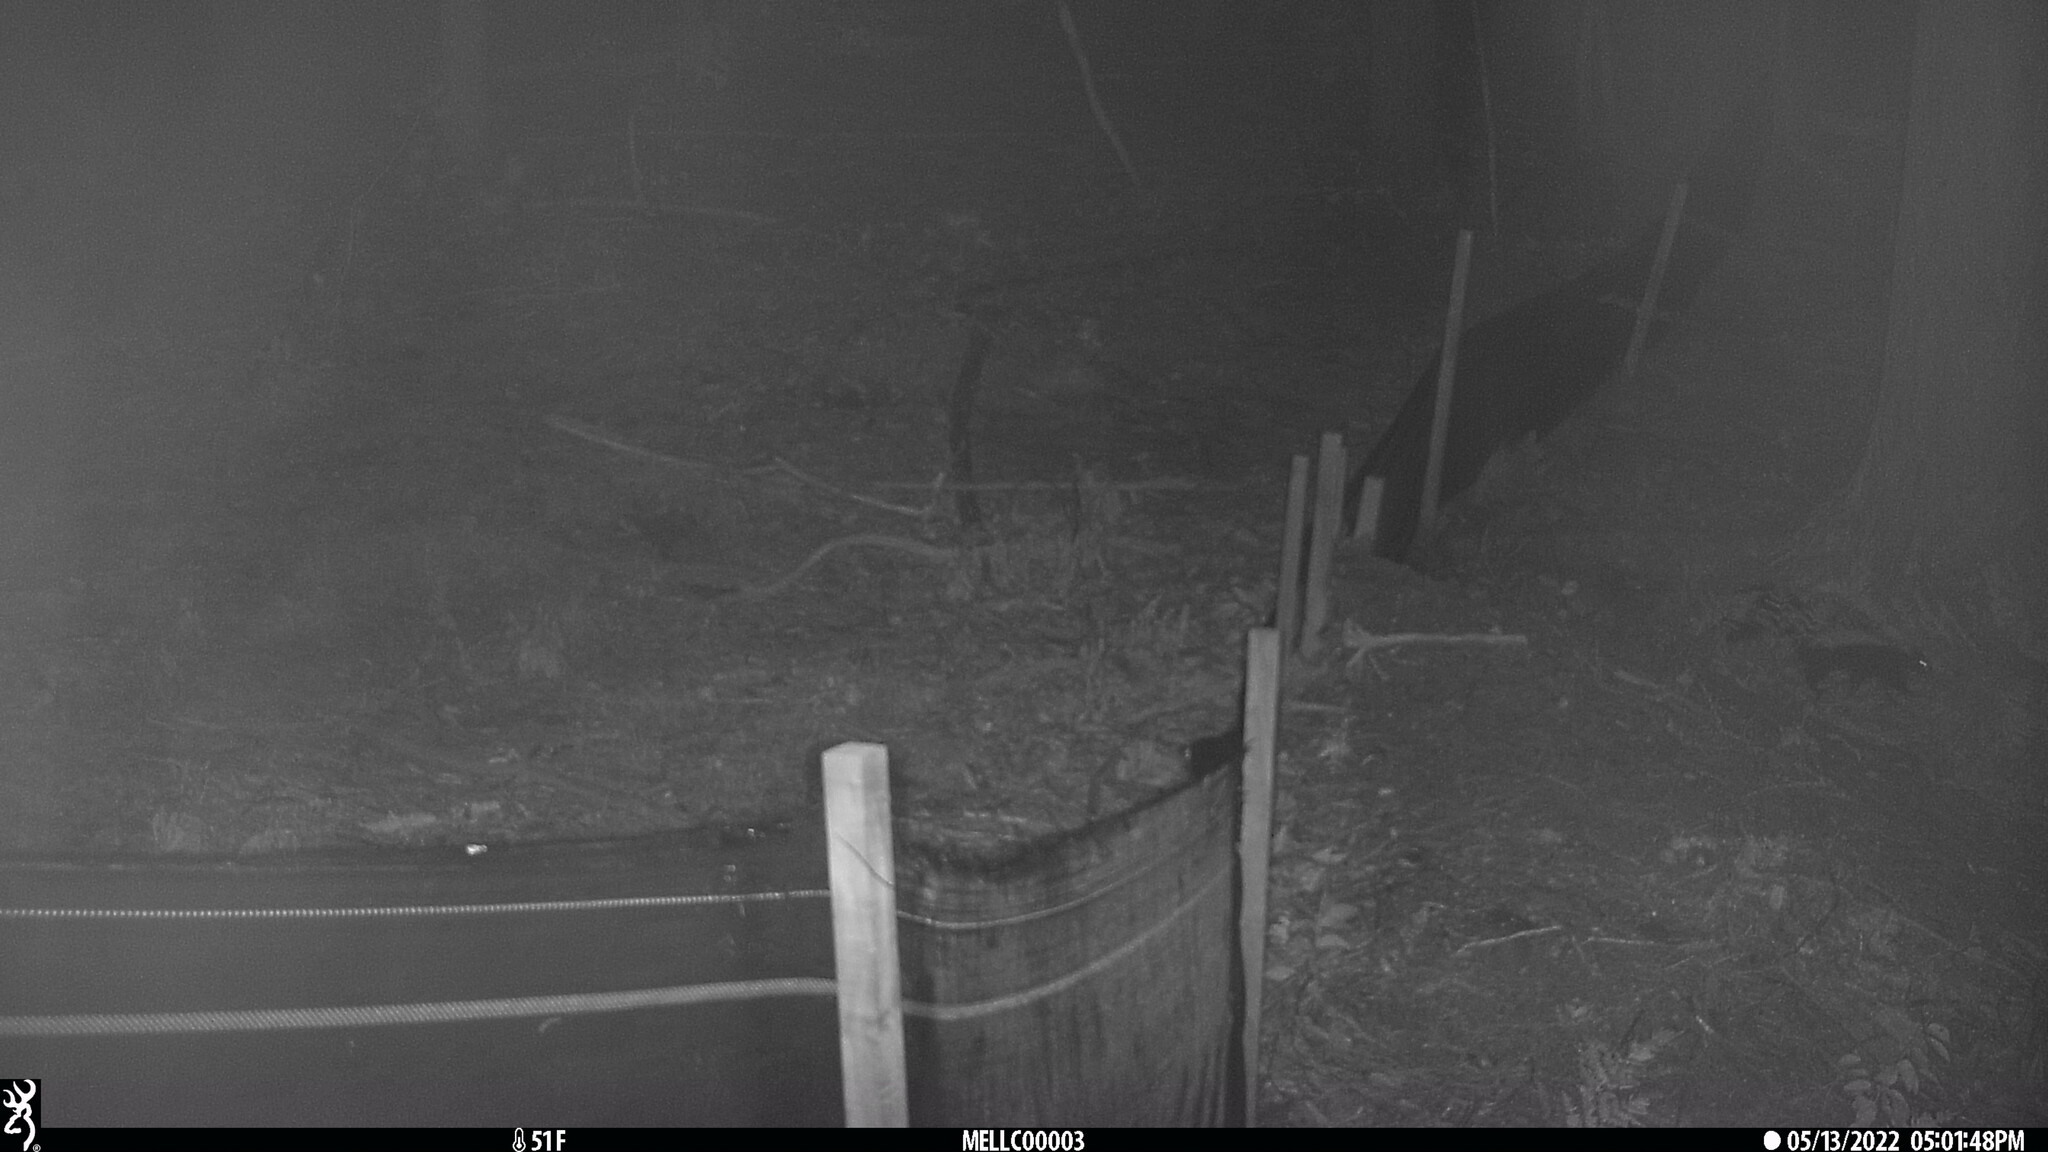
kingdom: Animalia
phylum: Chordata
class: Mammalia
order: Carnivora
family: Mephitidae
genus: Mephitis
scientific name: Mephitis mephitis
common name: Striped skunk
